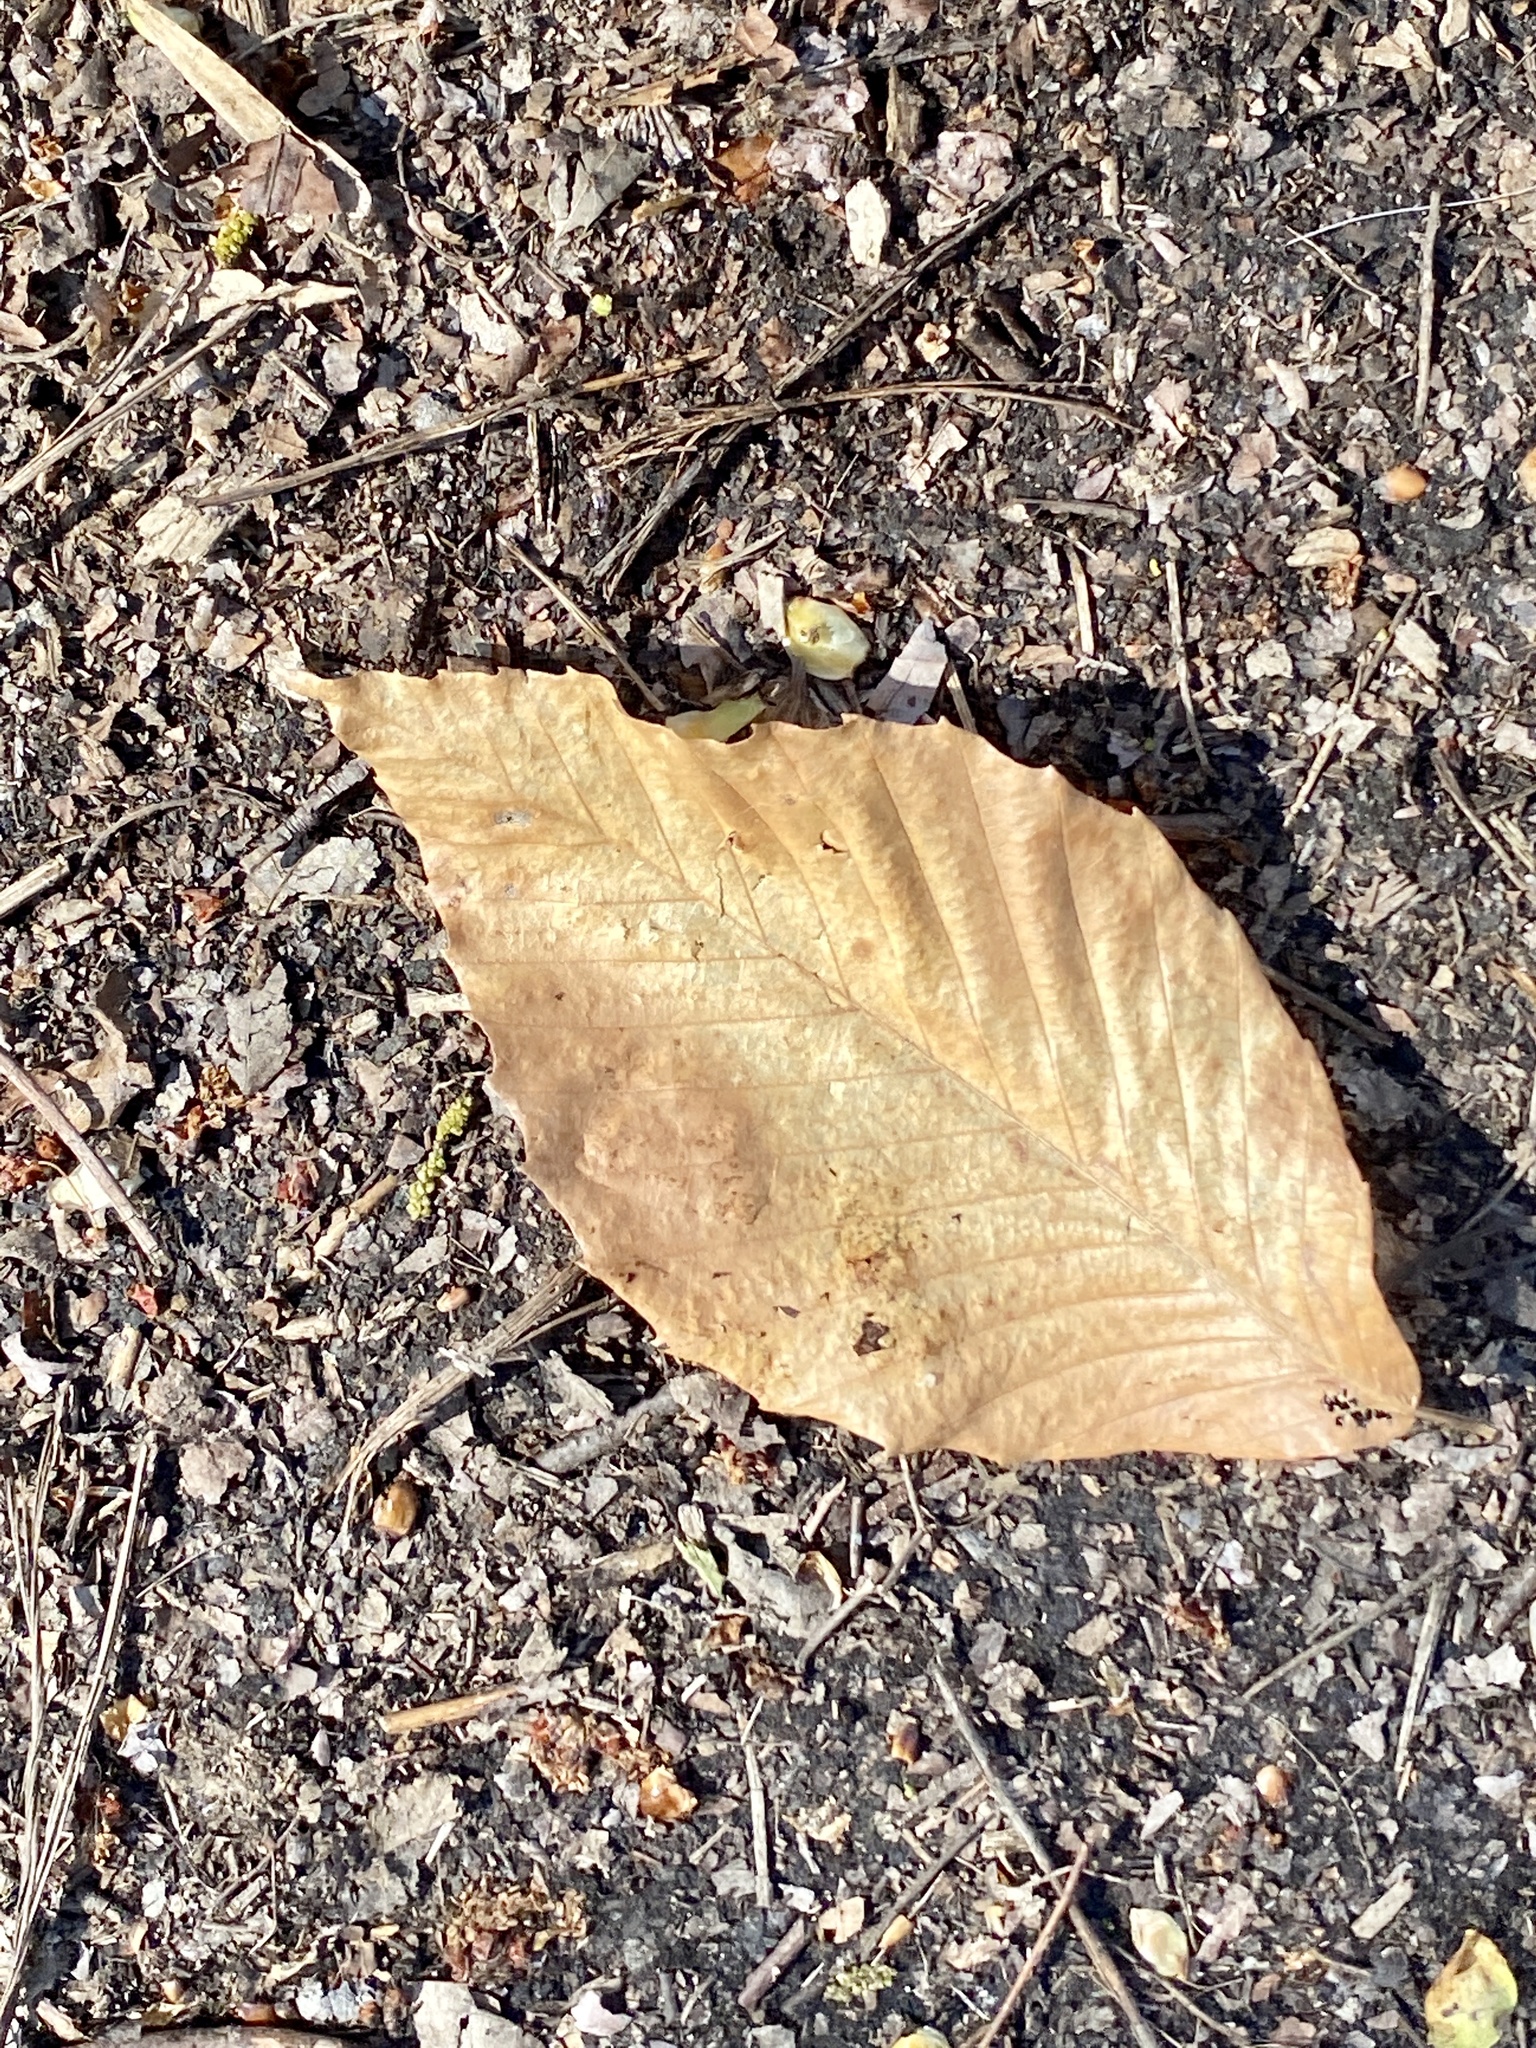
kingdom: Plantae
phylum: Tracheophyta
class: Magnoliopsida
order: Fagales
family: Fagaceae
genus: Fagus
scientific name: Fagus grandifolia
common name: American beech
